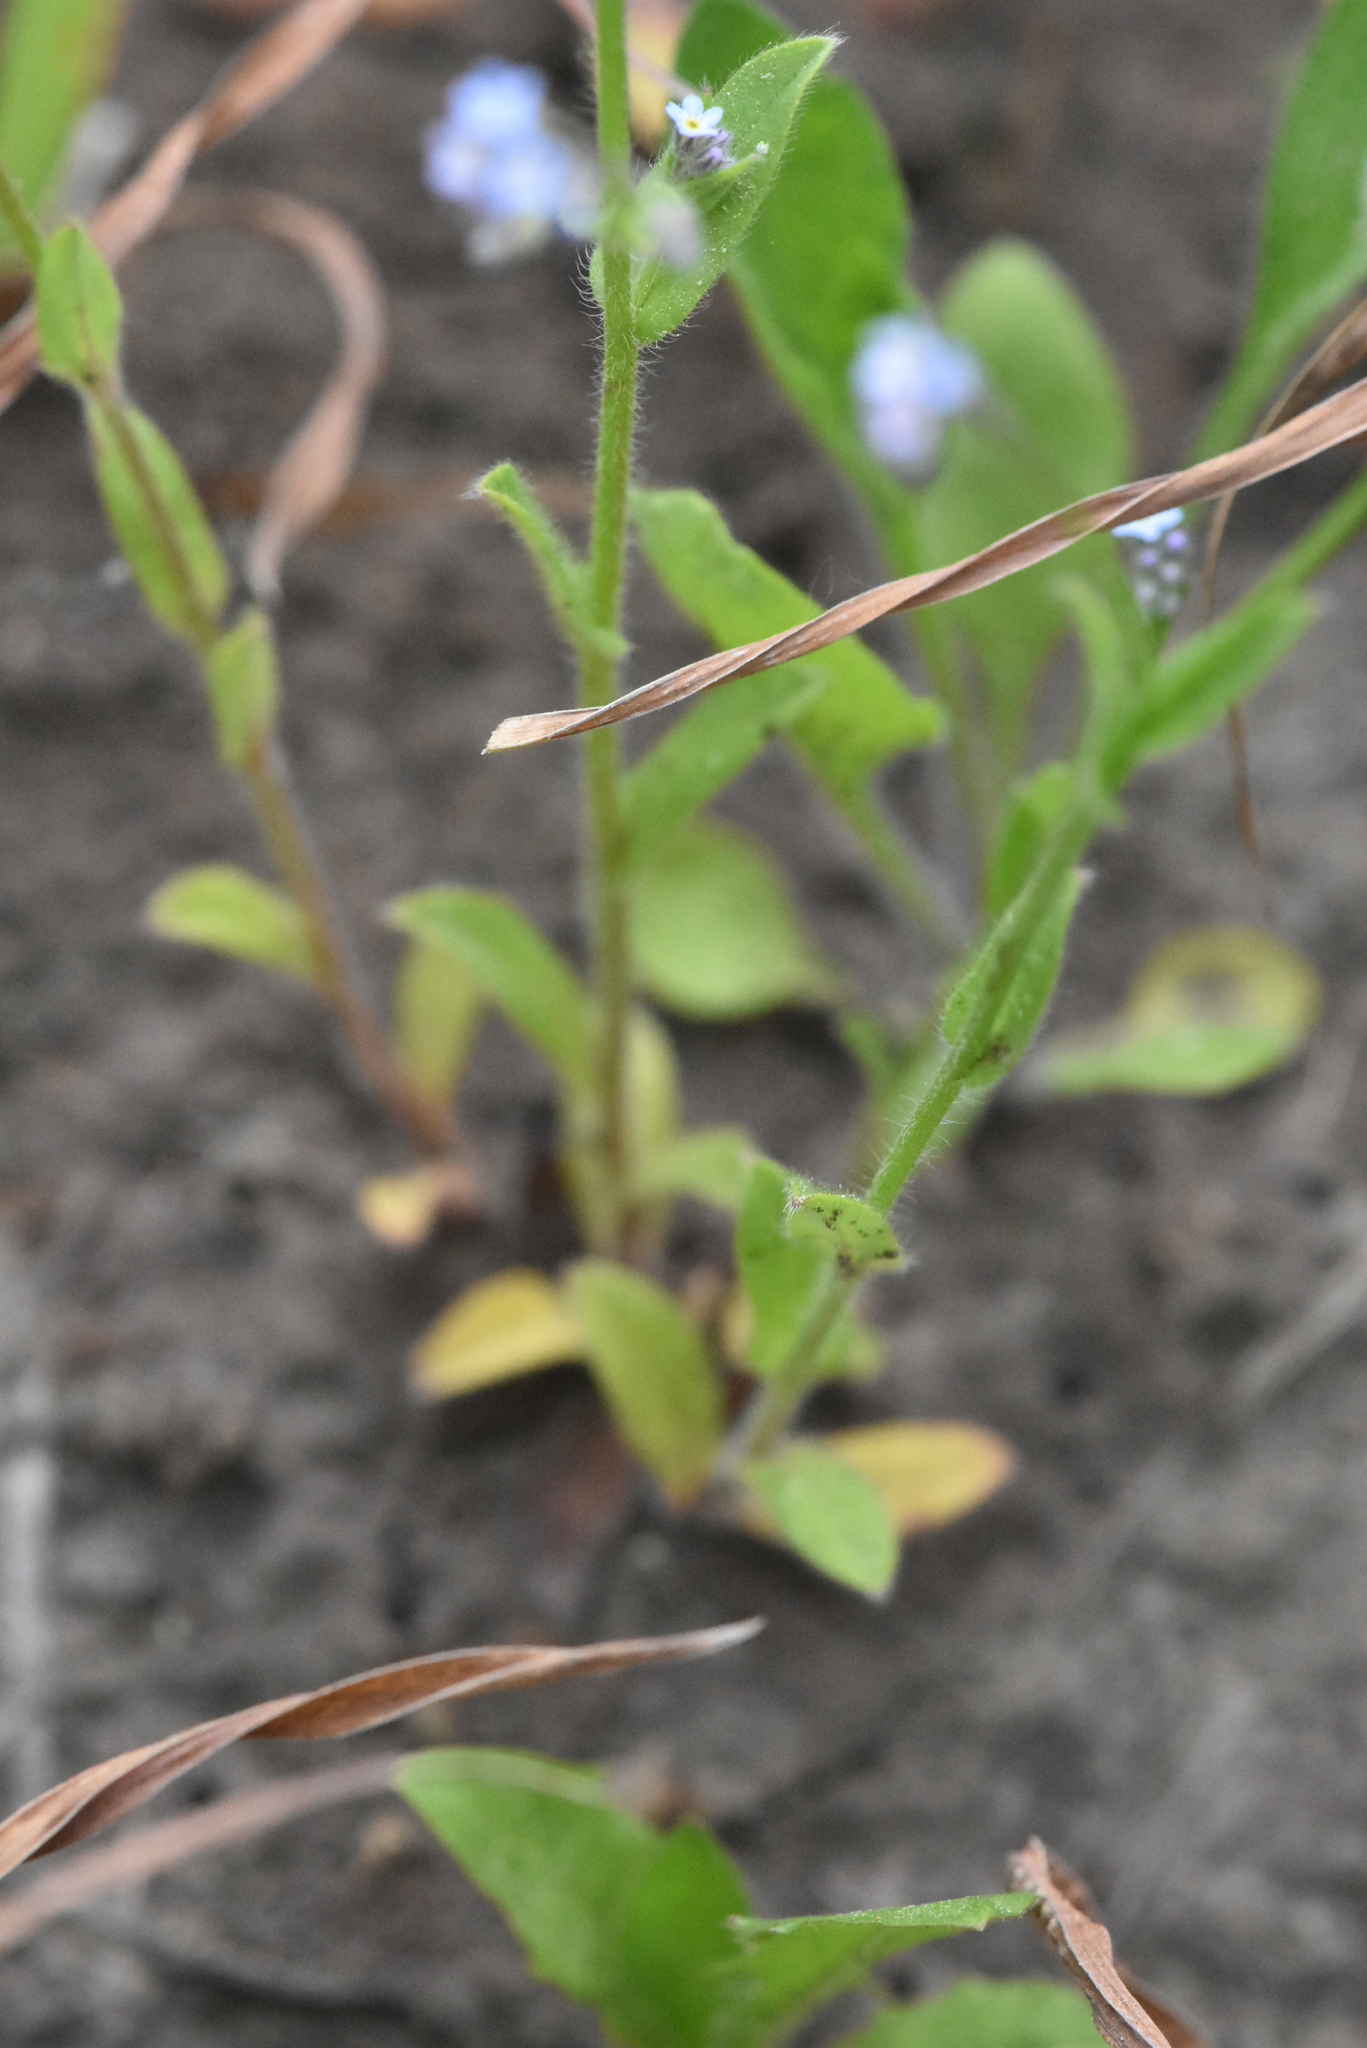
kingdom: Plantae
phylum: Tracheophyta
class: Magnoliopsida
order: Boraginales
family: Boraginaceae
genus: Myosotis
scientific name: Myosotis arvensis
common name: Field forget-me-not
